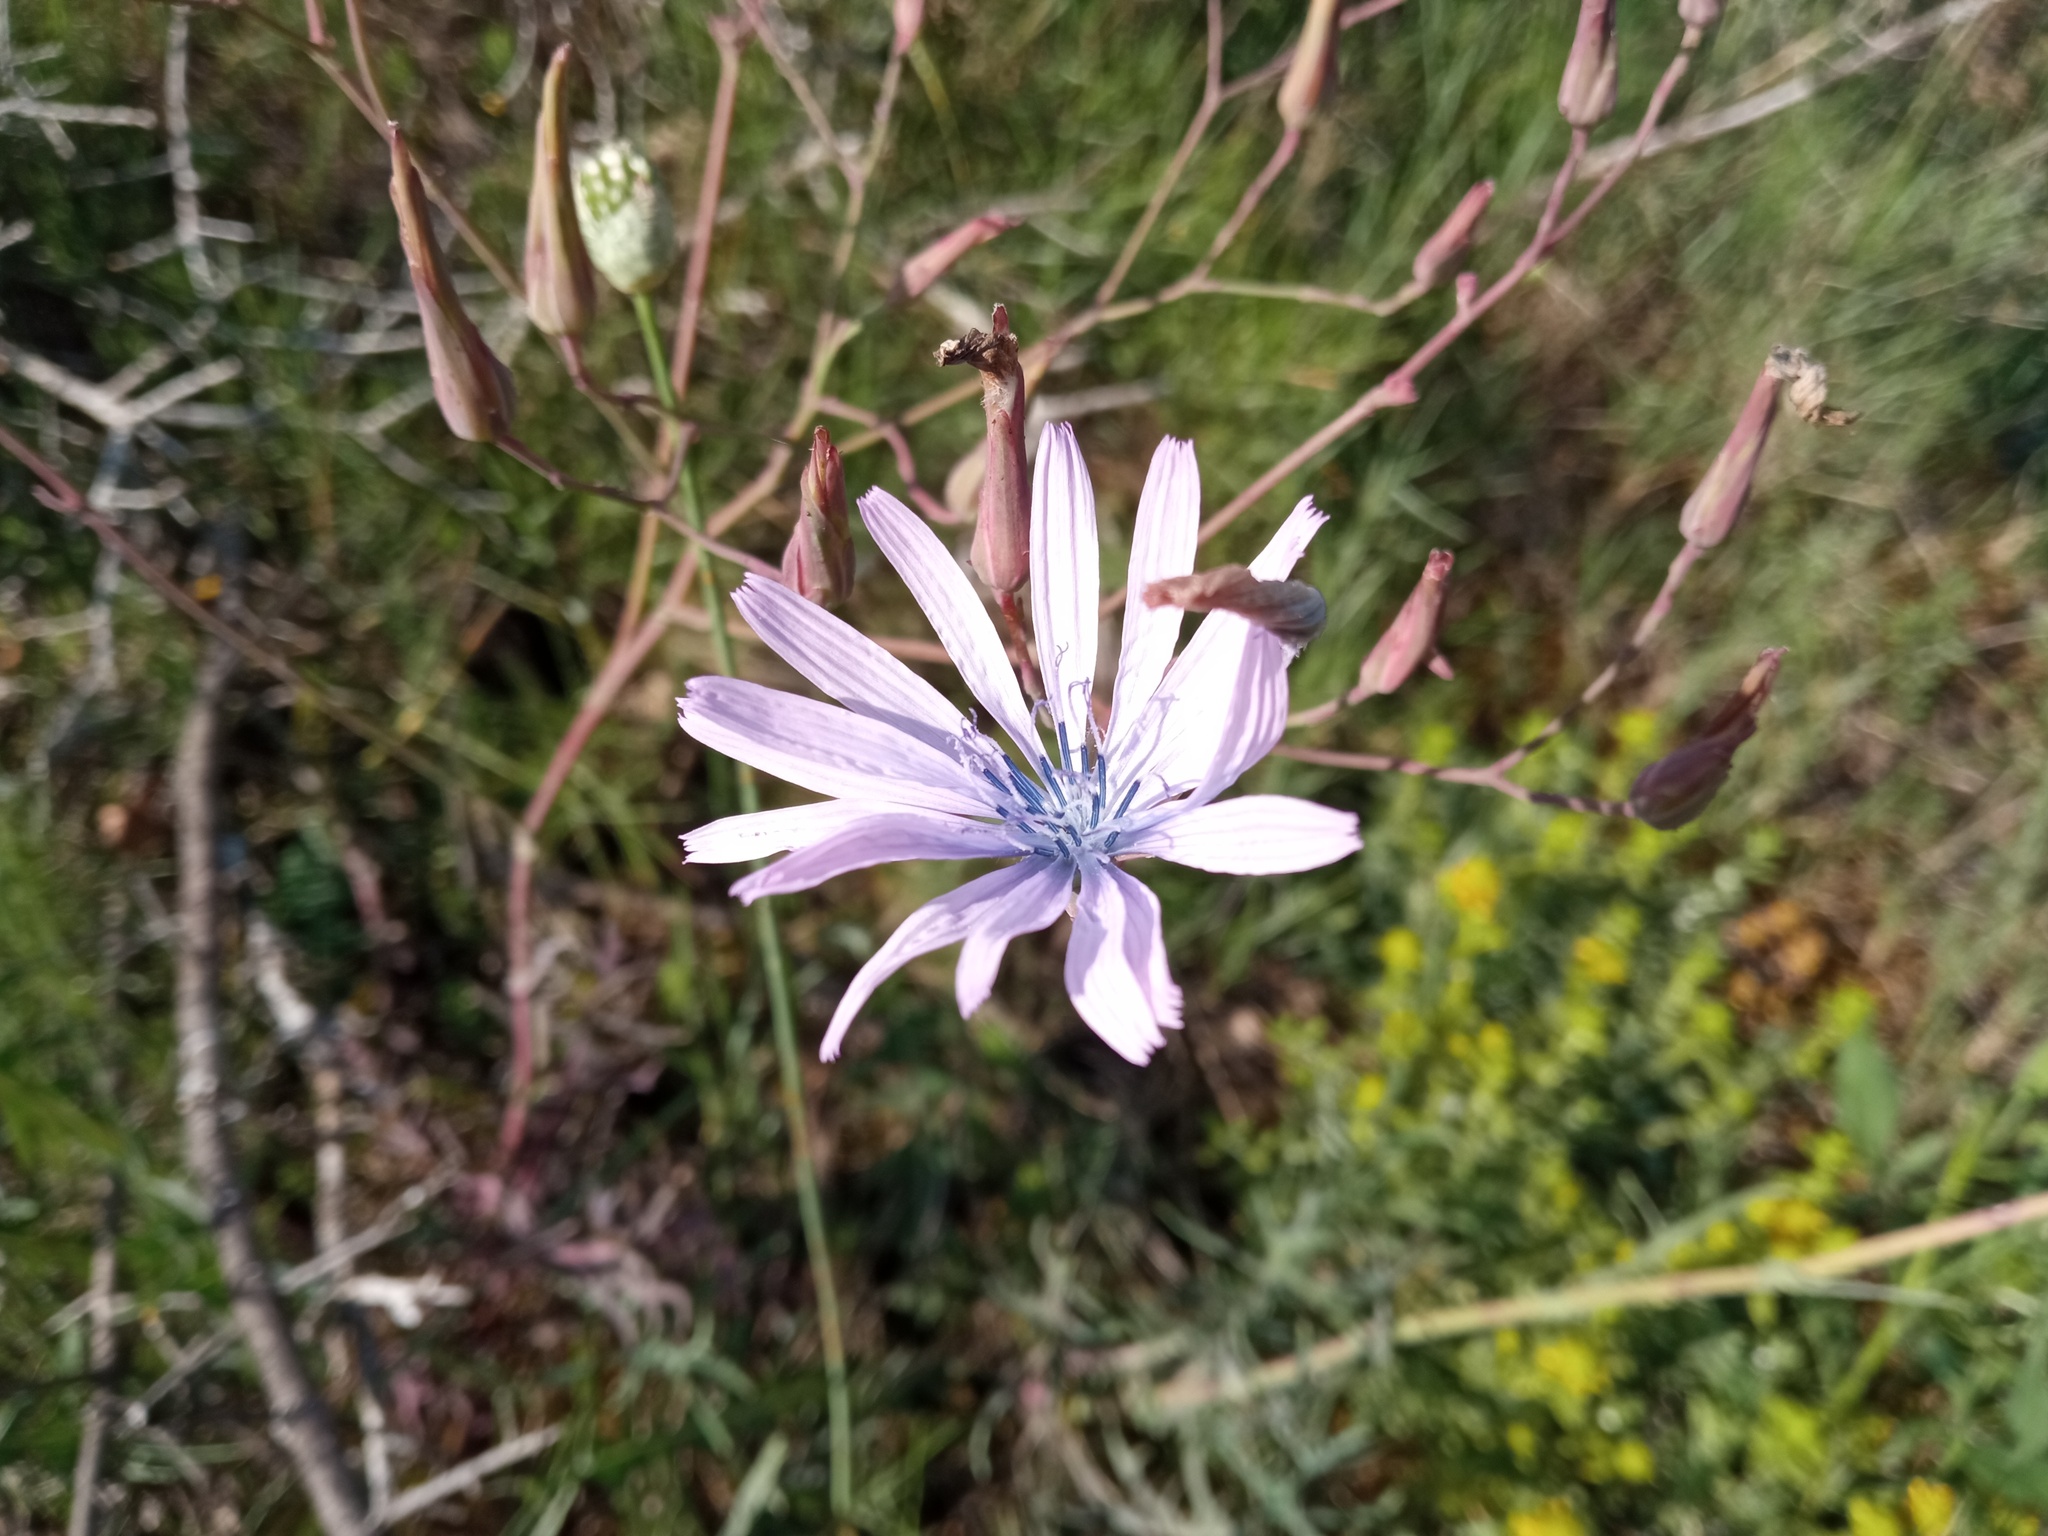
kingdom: Plantae
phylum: Tracheophyta
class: Magnoliopsida
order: Asterales
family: Asteraceae
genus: Lactuca
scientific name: Lactuca perennis
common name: Mountain lettuce
